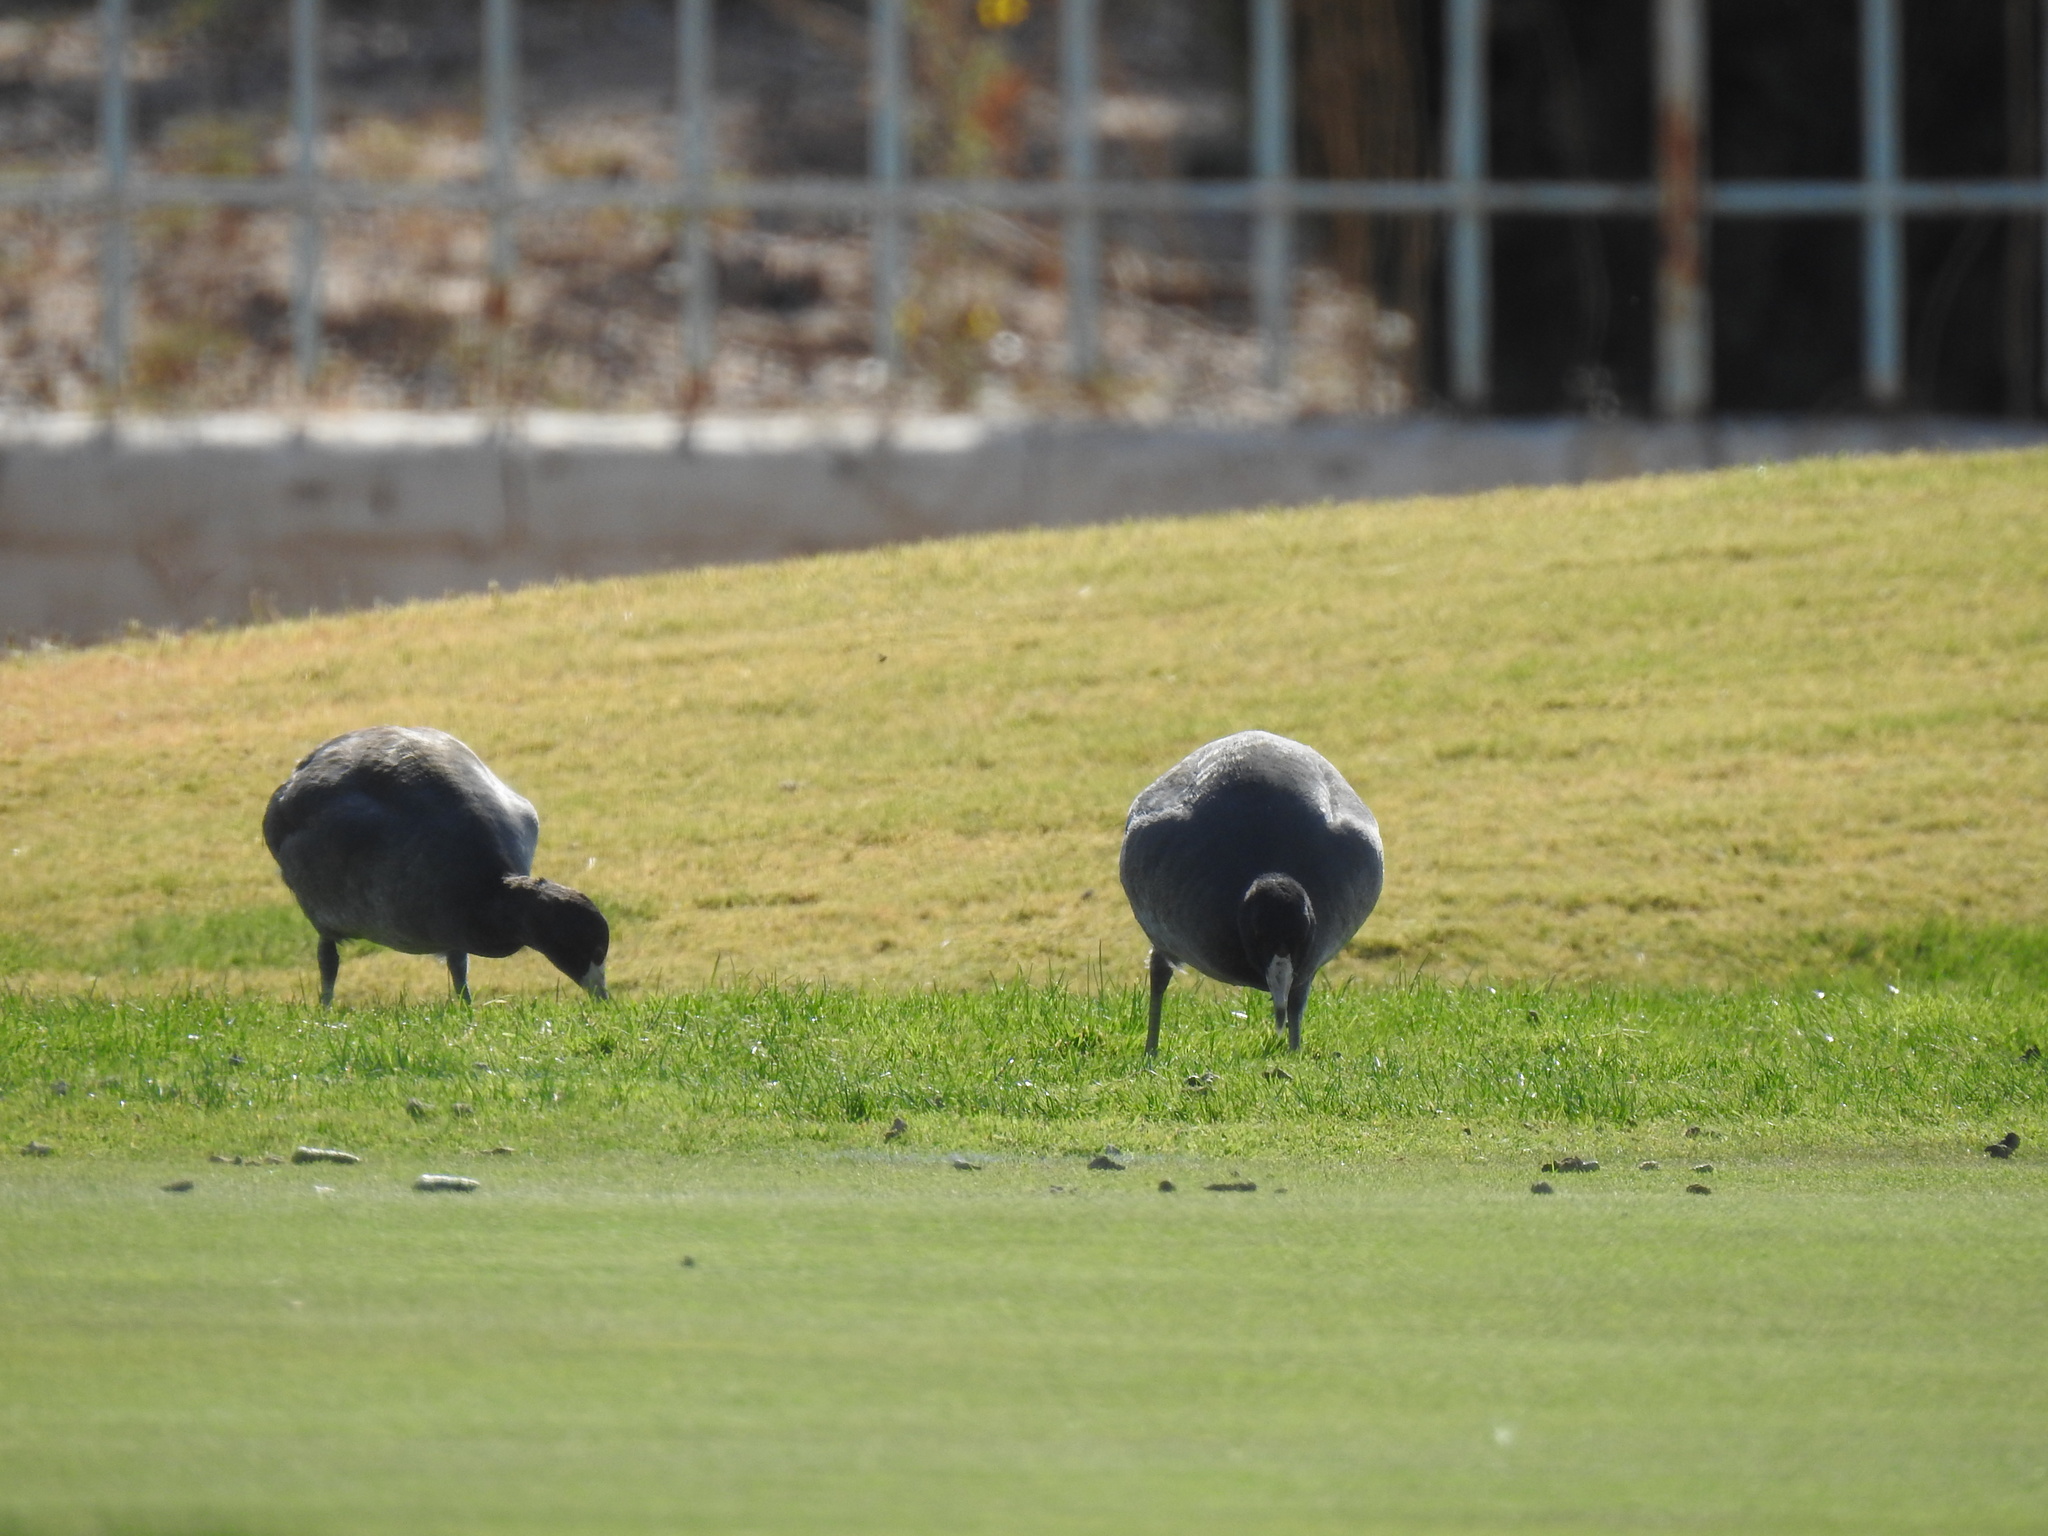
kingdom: Animalia
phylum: Chordata
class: Aves
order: Gruiformes
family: Rallidae
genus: Fulica
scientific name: Fulica americana
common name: American coot
